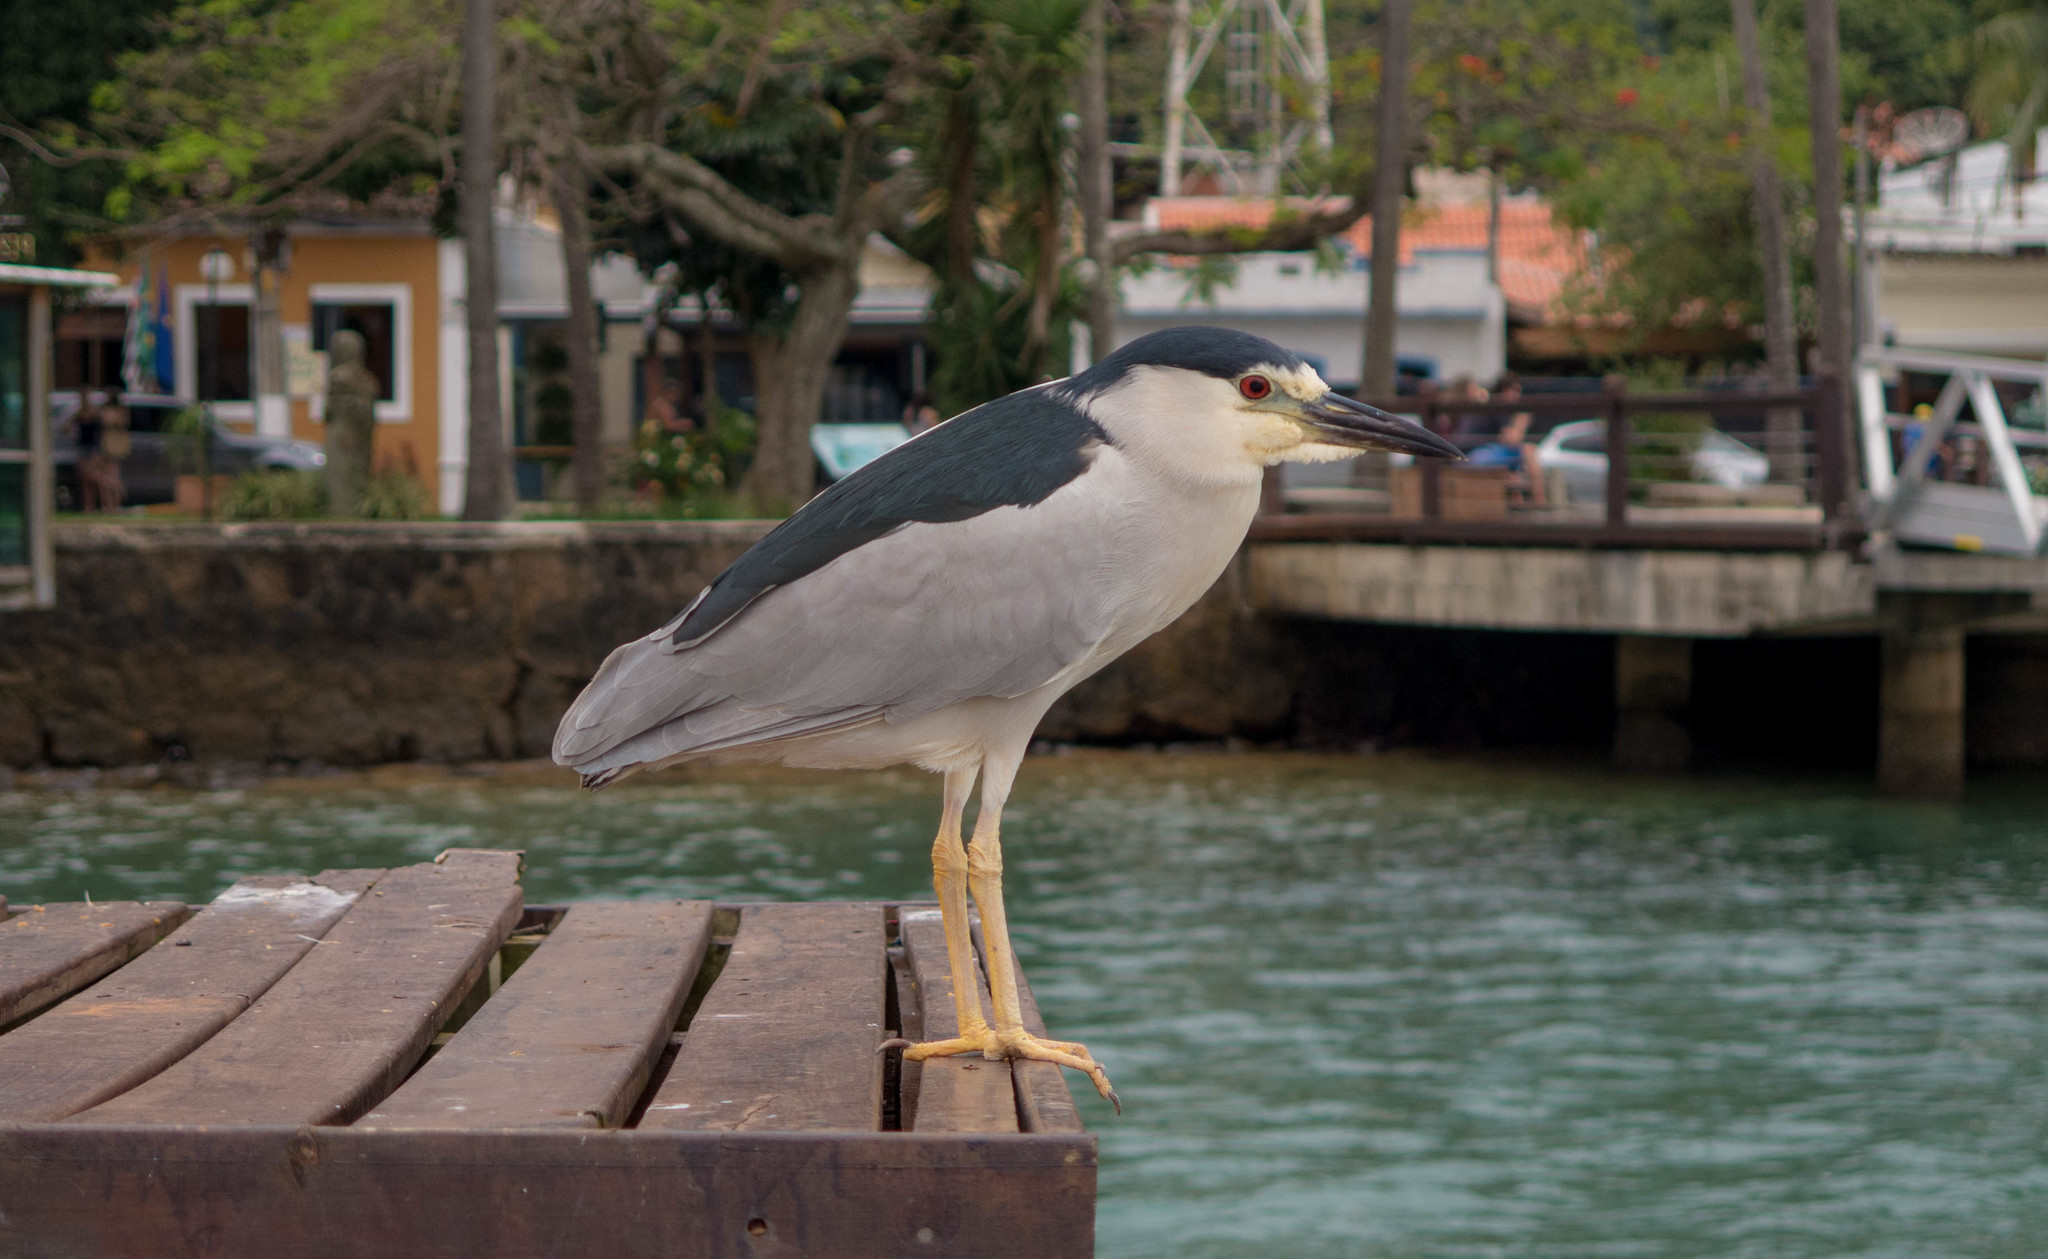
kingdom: Animalia
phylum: Chordata
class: Aves
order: Pelecaniformes
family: Ardeidae
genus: Nycticorax
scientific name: Nycticorax nycticorax
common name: Black-crowned night heron
